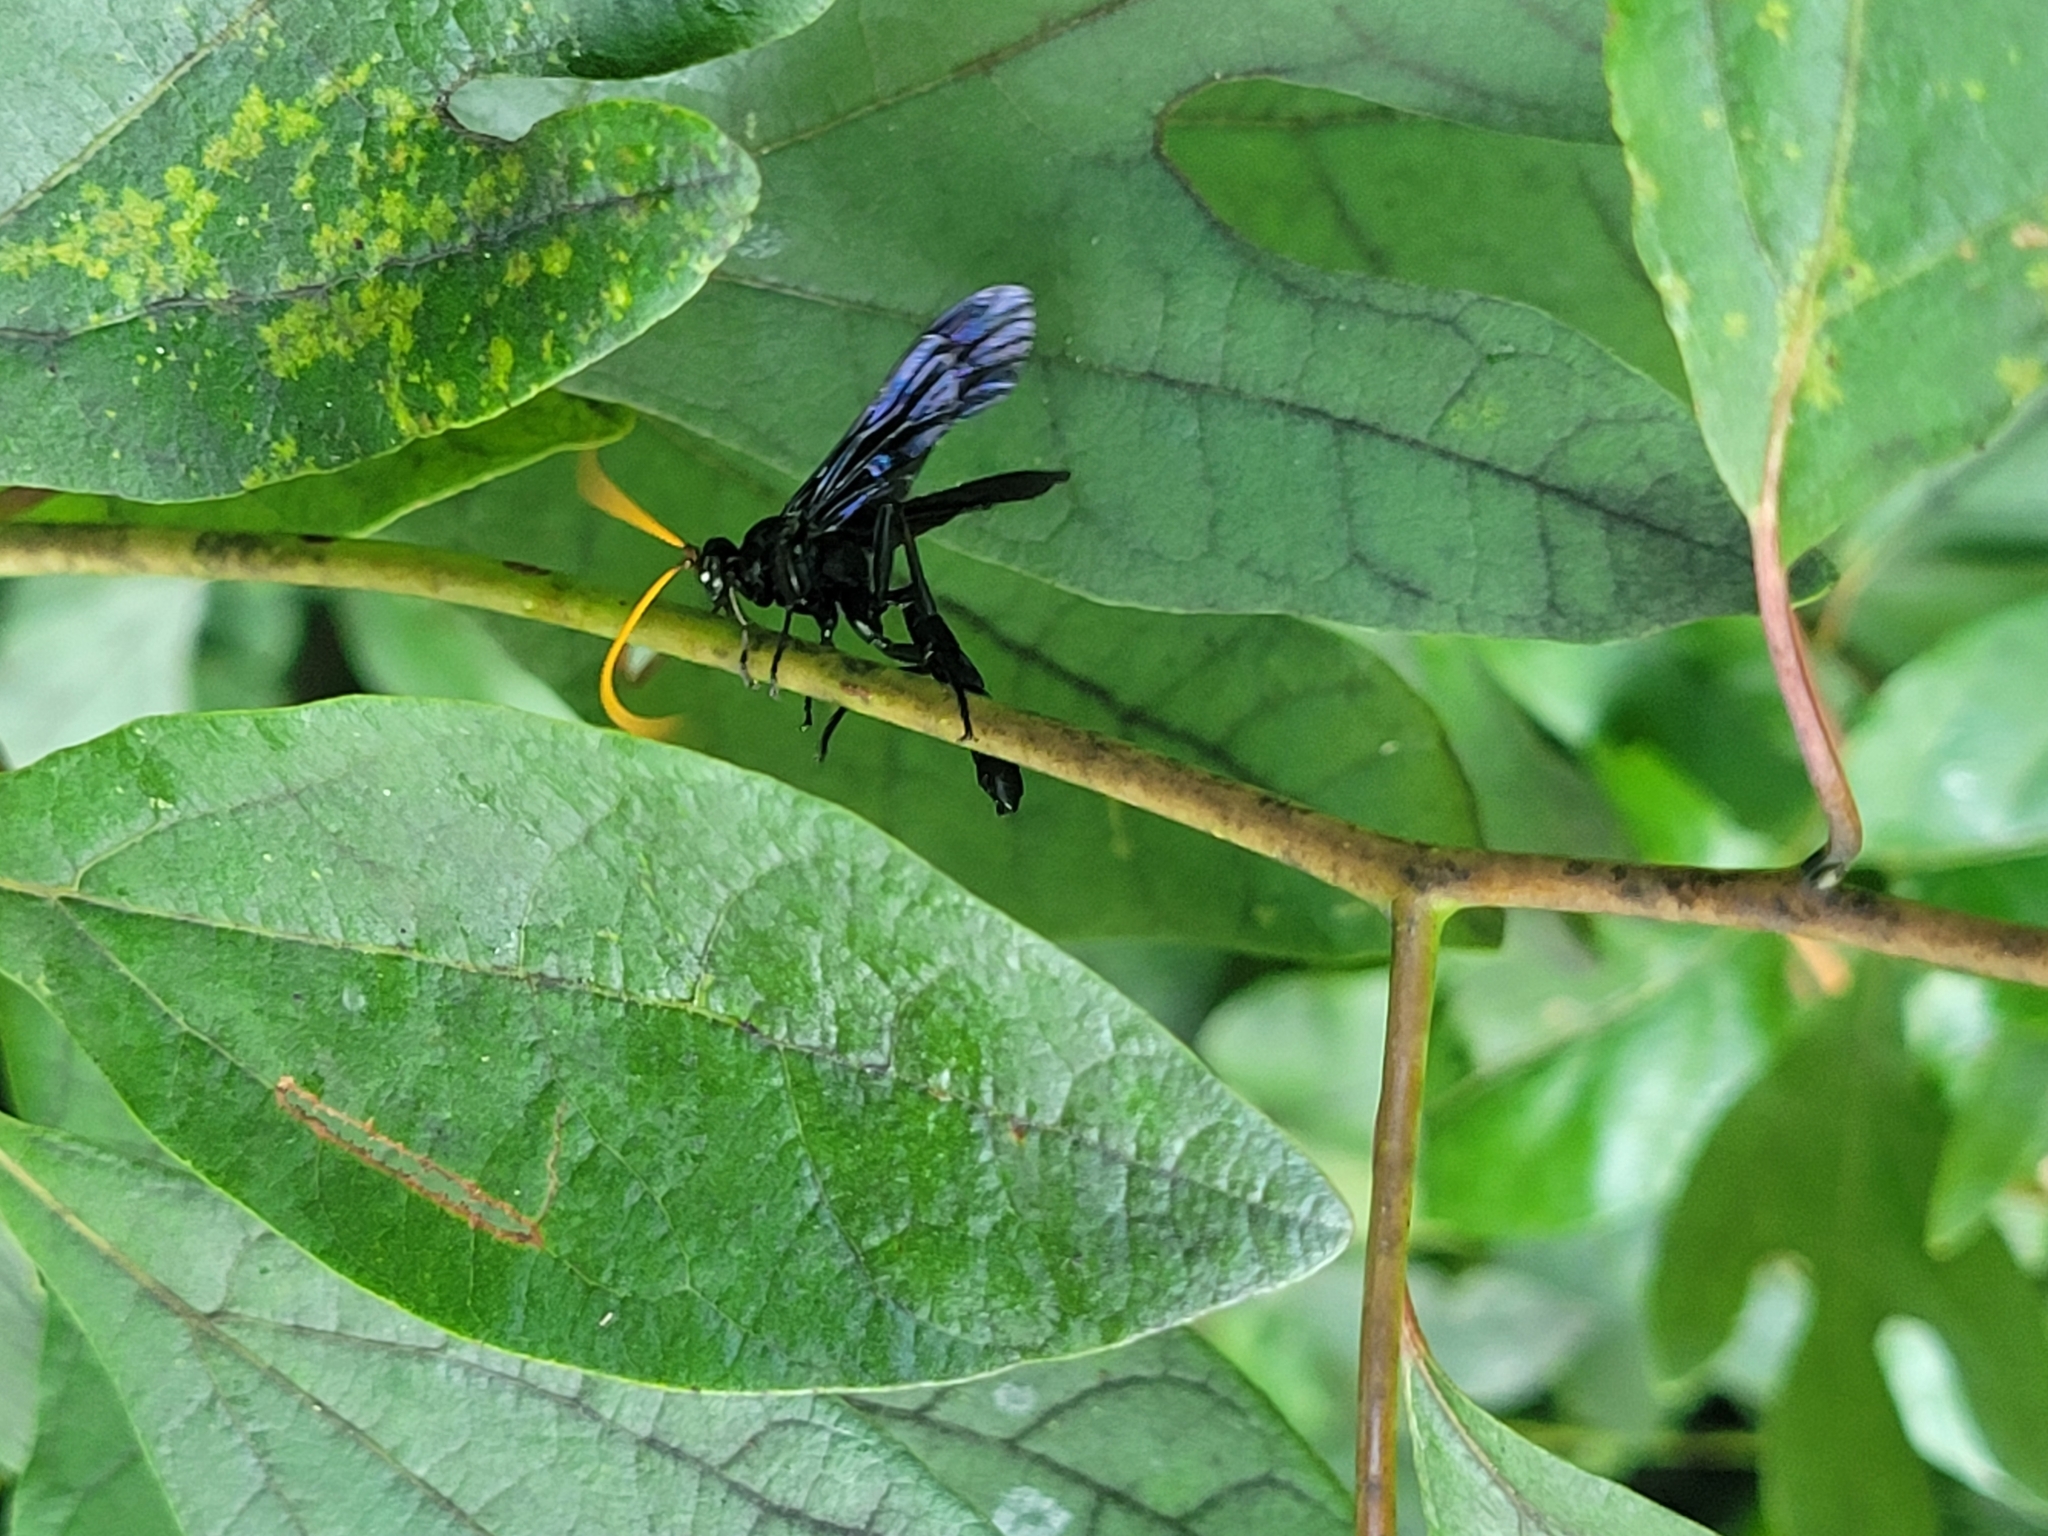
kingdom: Animalia
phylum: Arthropoda
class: Insecta
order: Hymenoptera
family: Ichneumonidae
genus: Gnamptopelta
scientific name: Gnamptopelta obsidianator
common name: Bent-shielded besieger wasp
